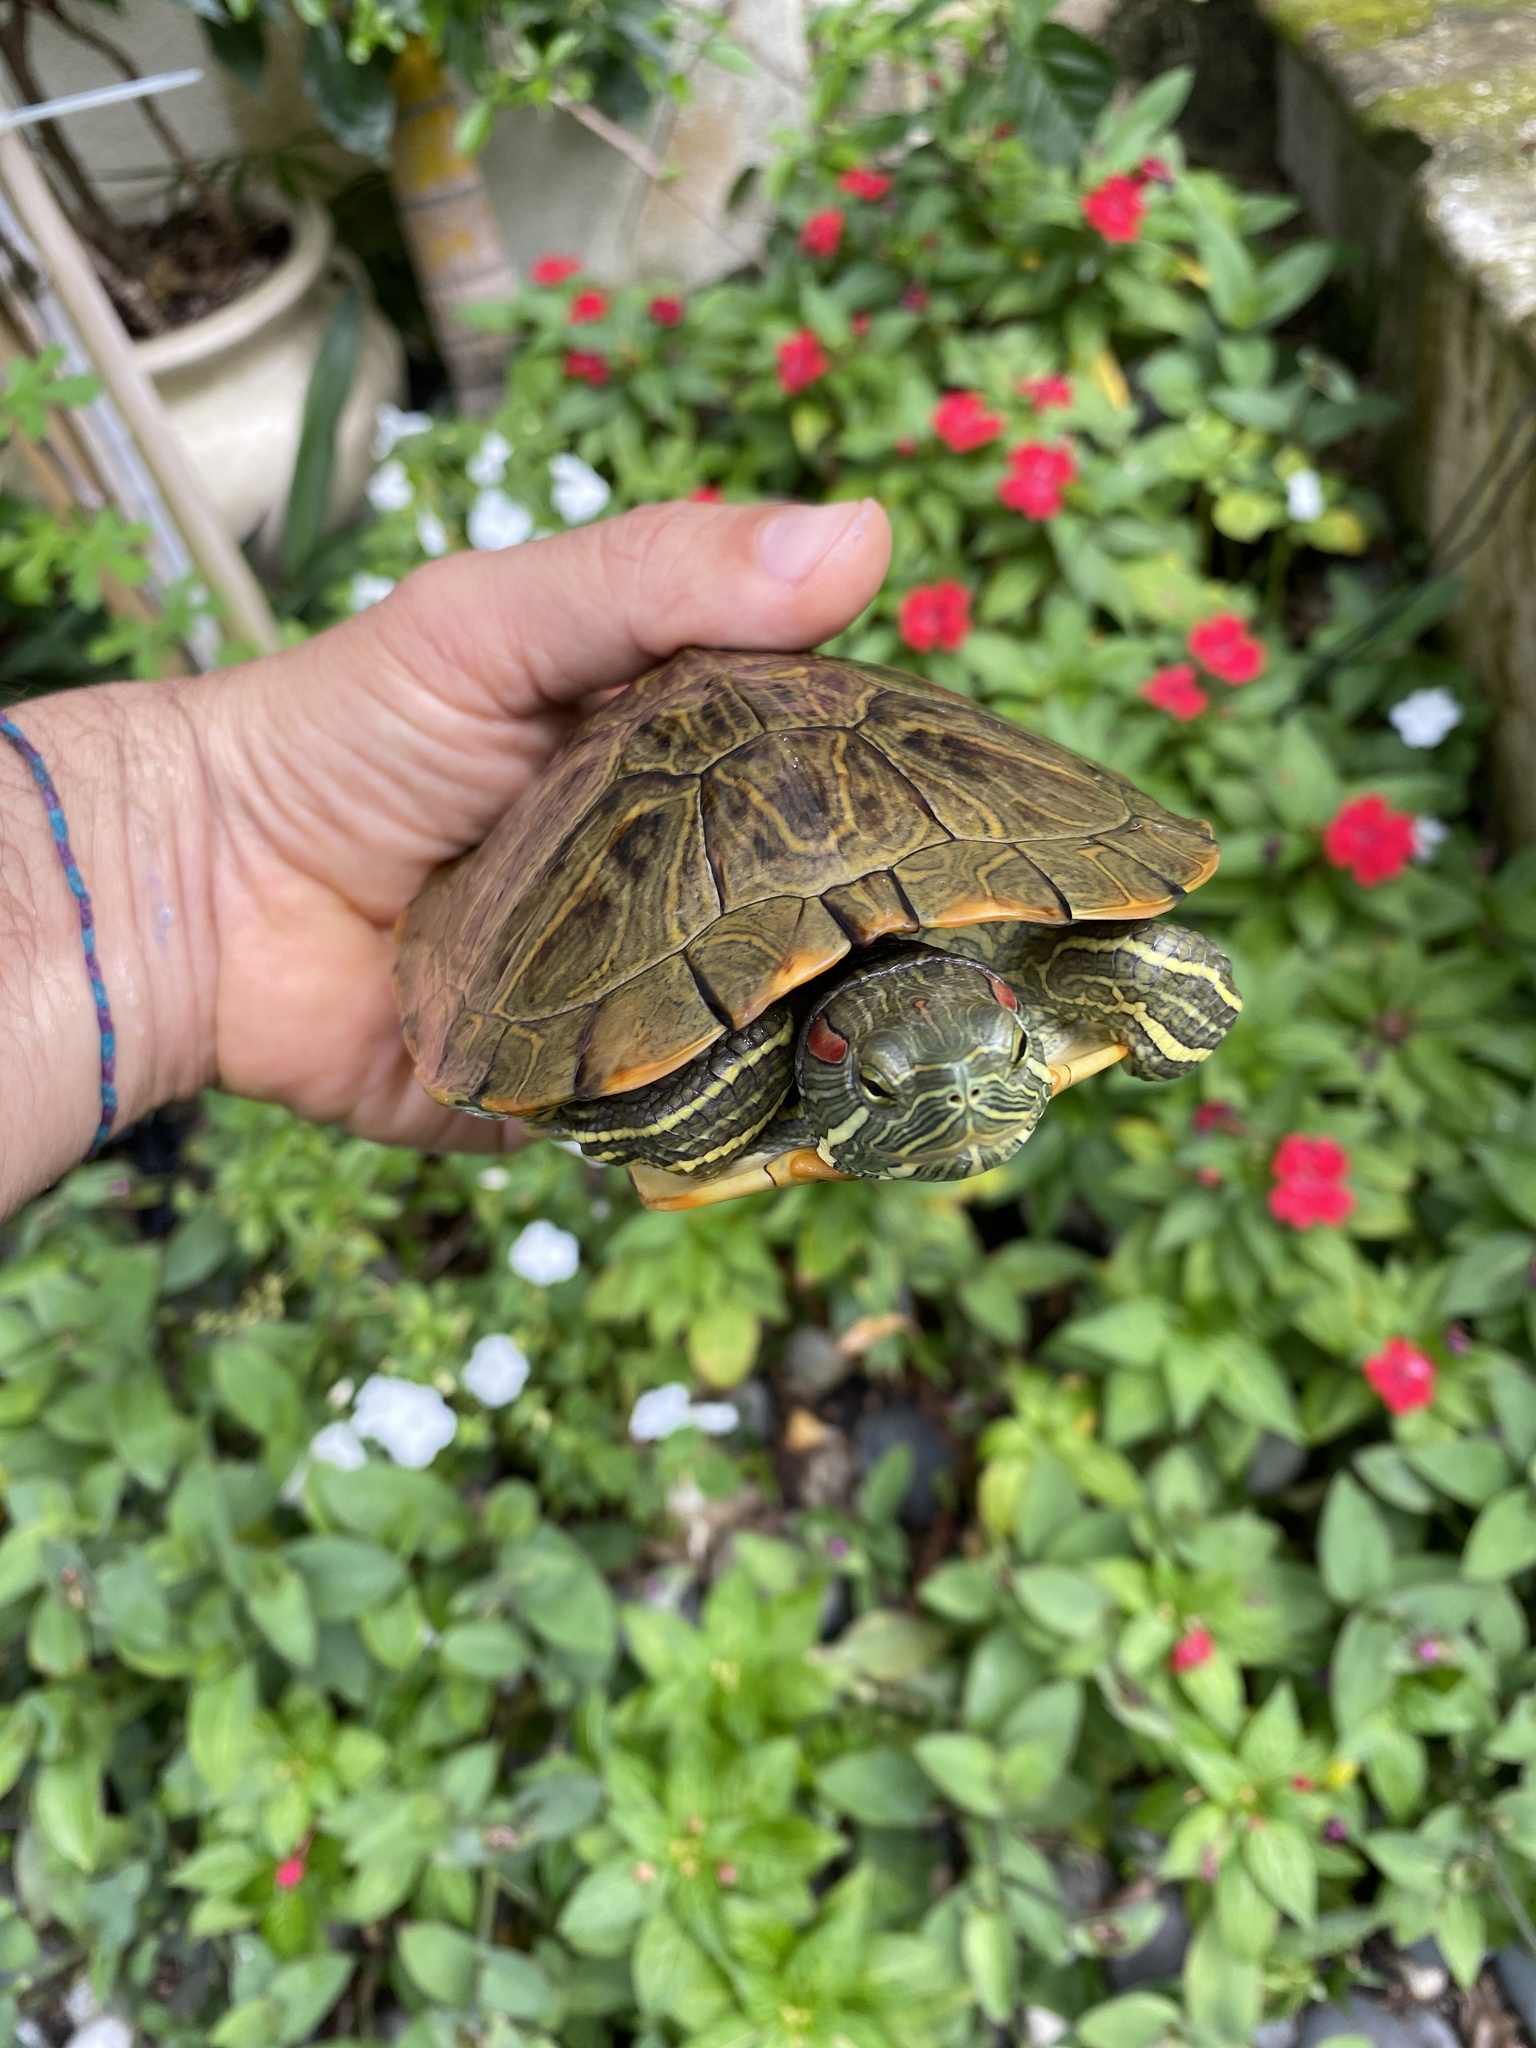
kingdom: Animalia
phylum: Chordata
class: Testudines
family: Emydidae
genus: Trachemys
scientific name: Trachemys scripta
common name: Slider
